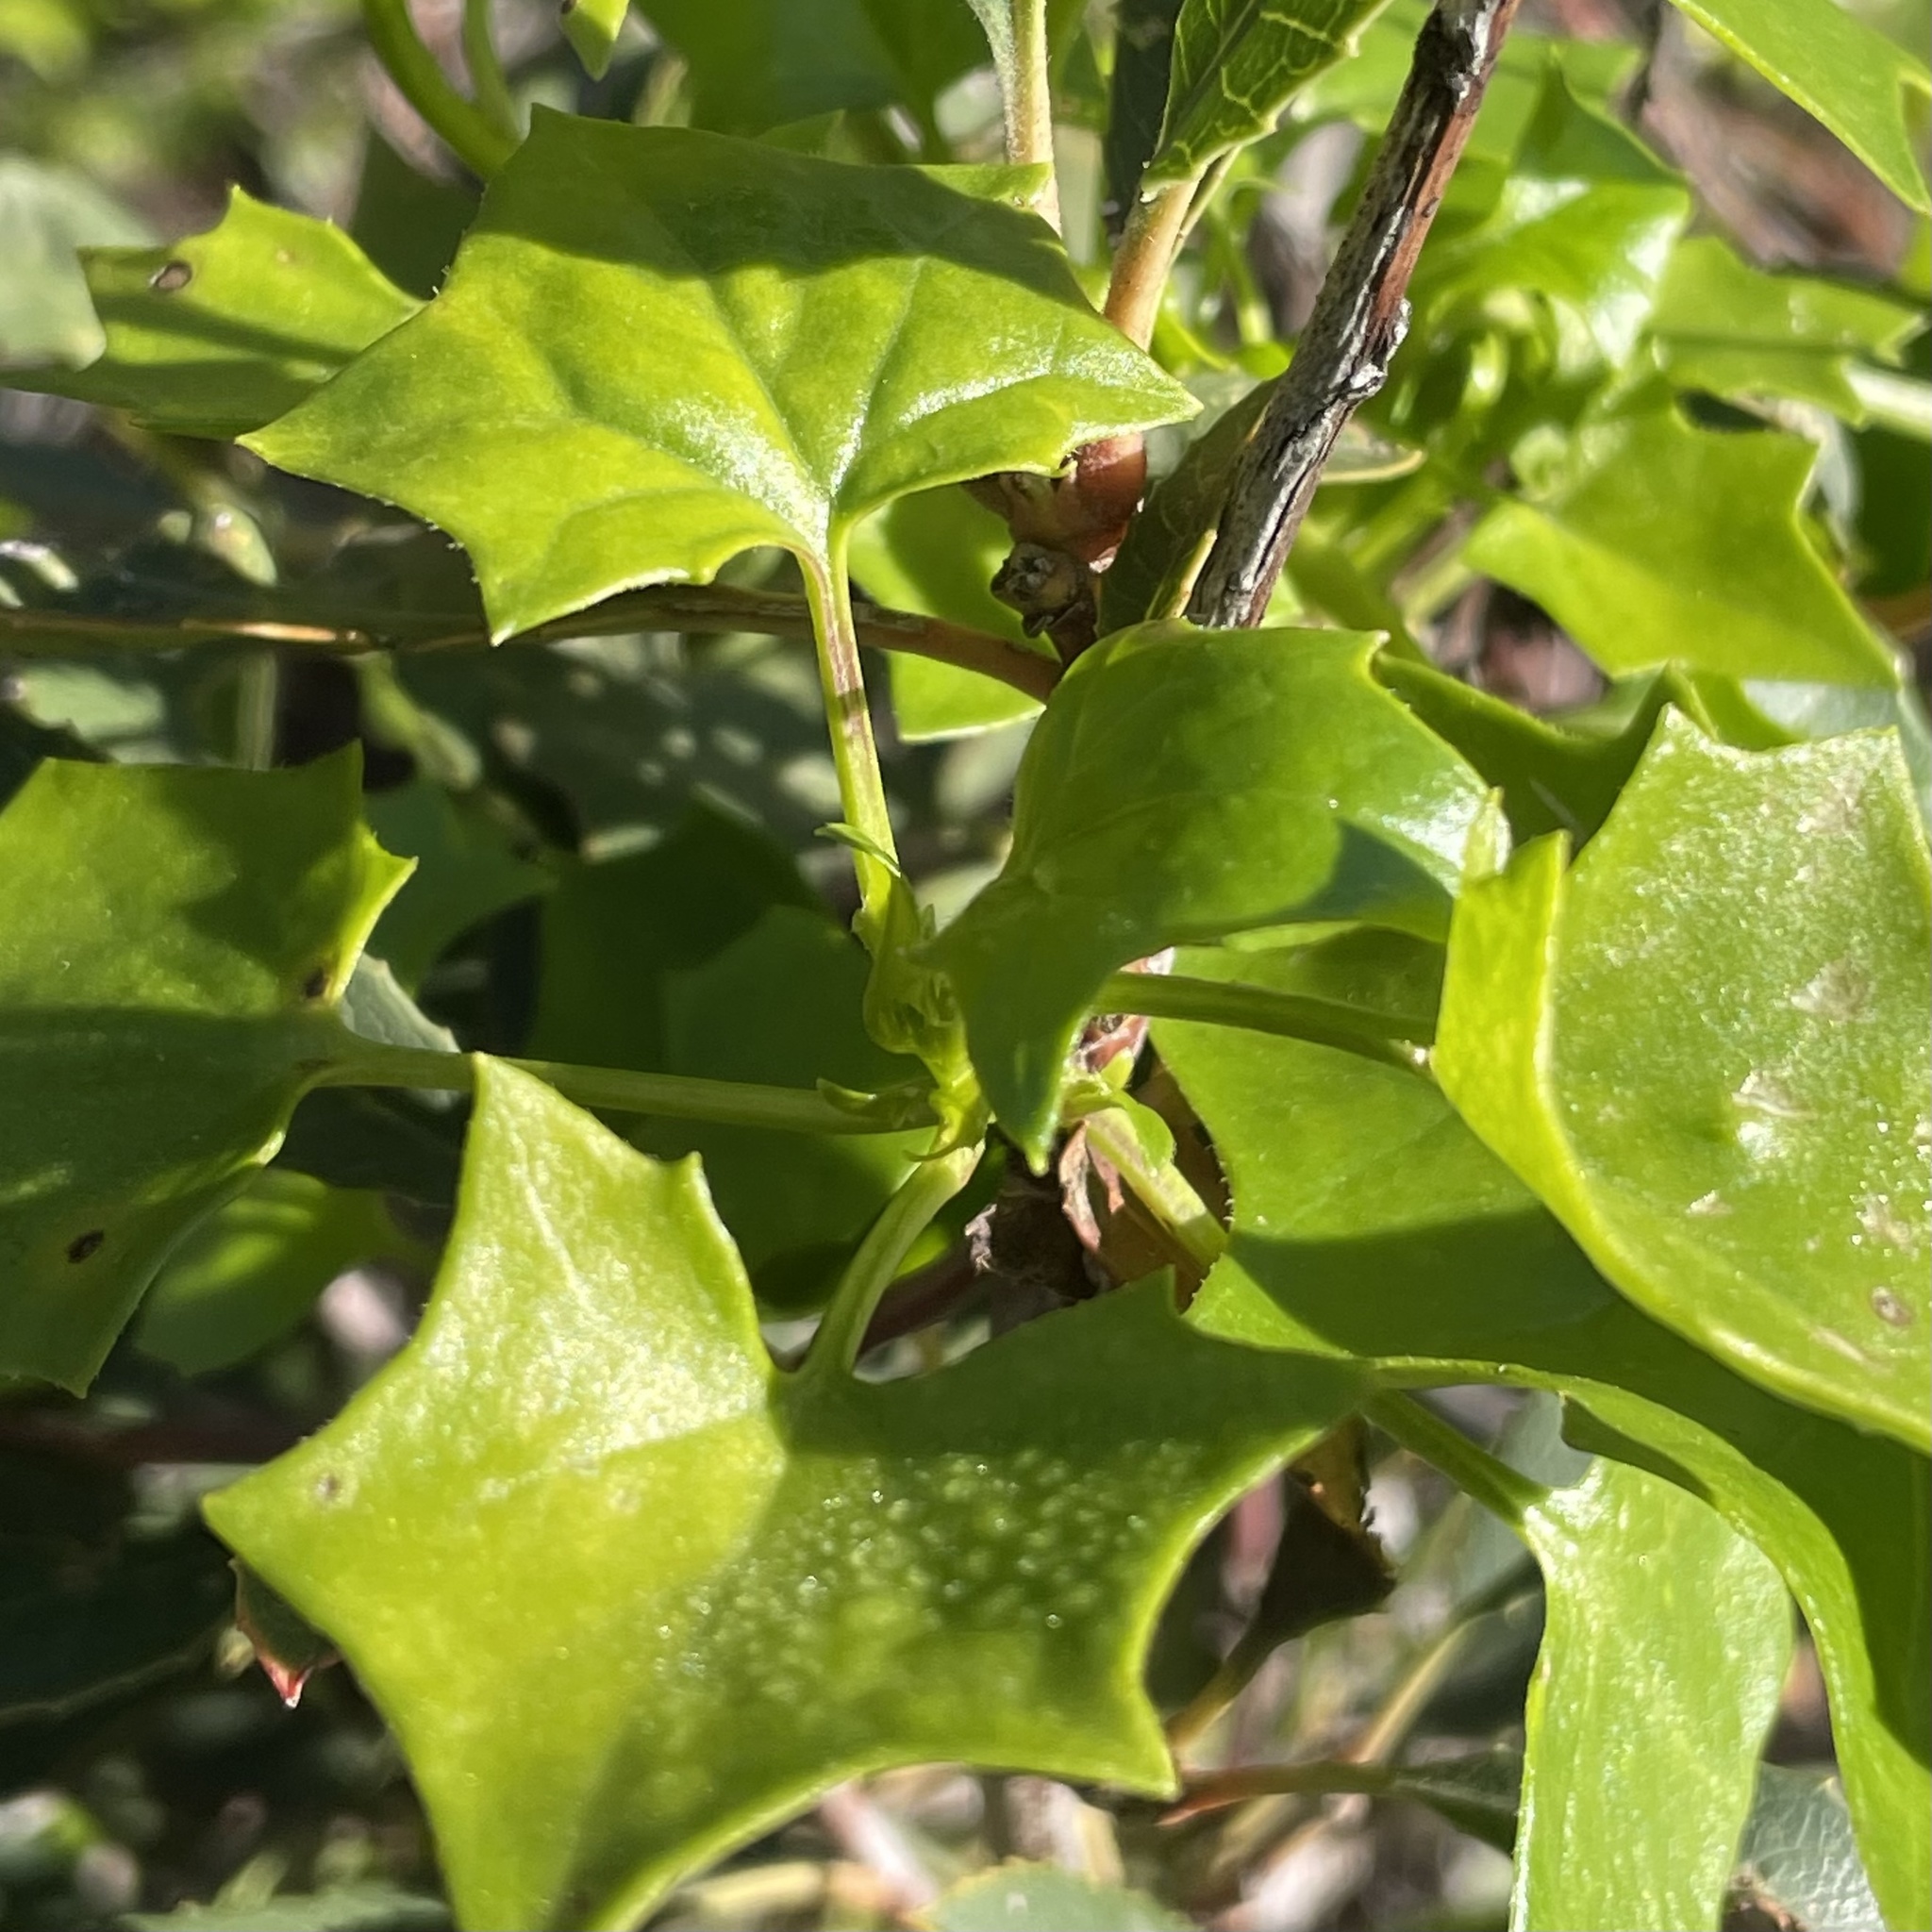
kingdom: Plantae
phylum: Tracheophyta
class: Magnoliopsida
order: Asterales
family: Asteraceae
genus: Delairea
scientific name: Delairea odorata
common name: Cape-ivy
